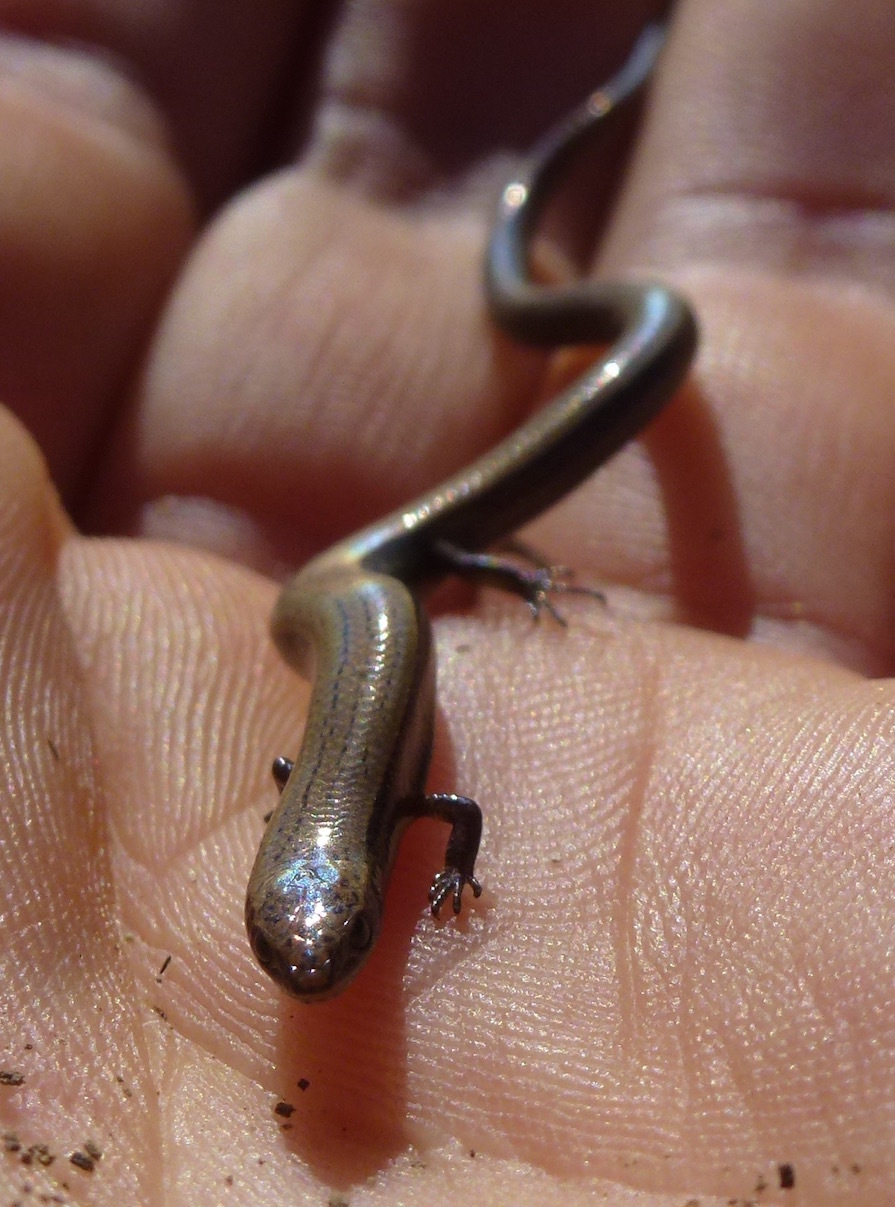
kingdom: Animalia
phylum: Chordata
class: Squamata
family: Scincidae
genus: Ablepharus
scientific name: Ablepharus rueppellii
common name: Rueppel’s snake-eyed skink
